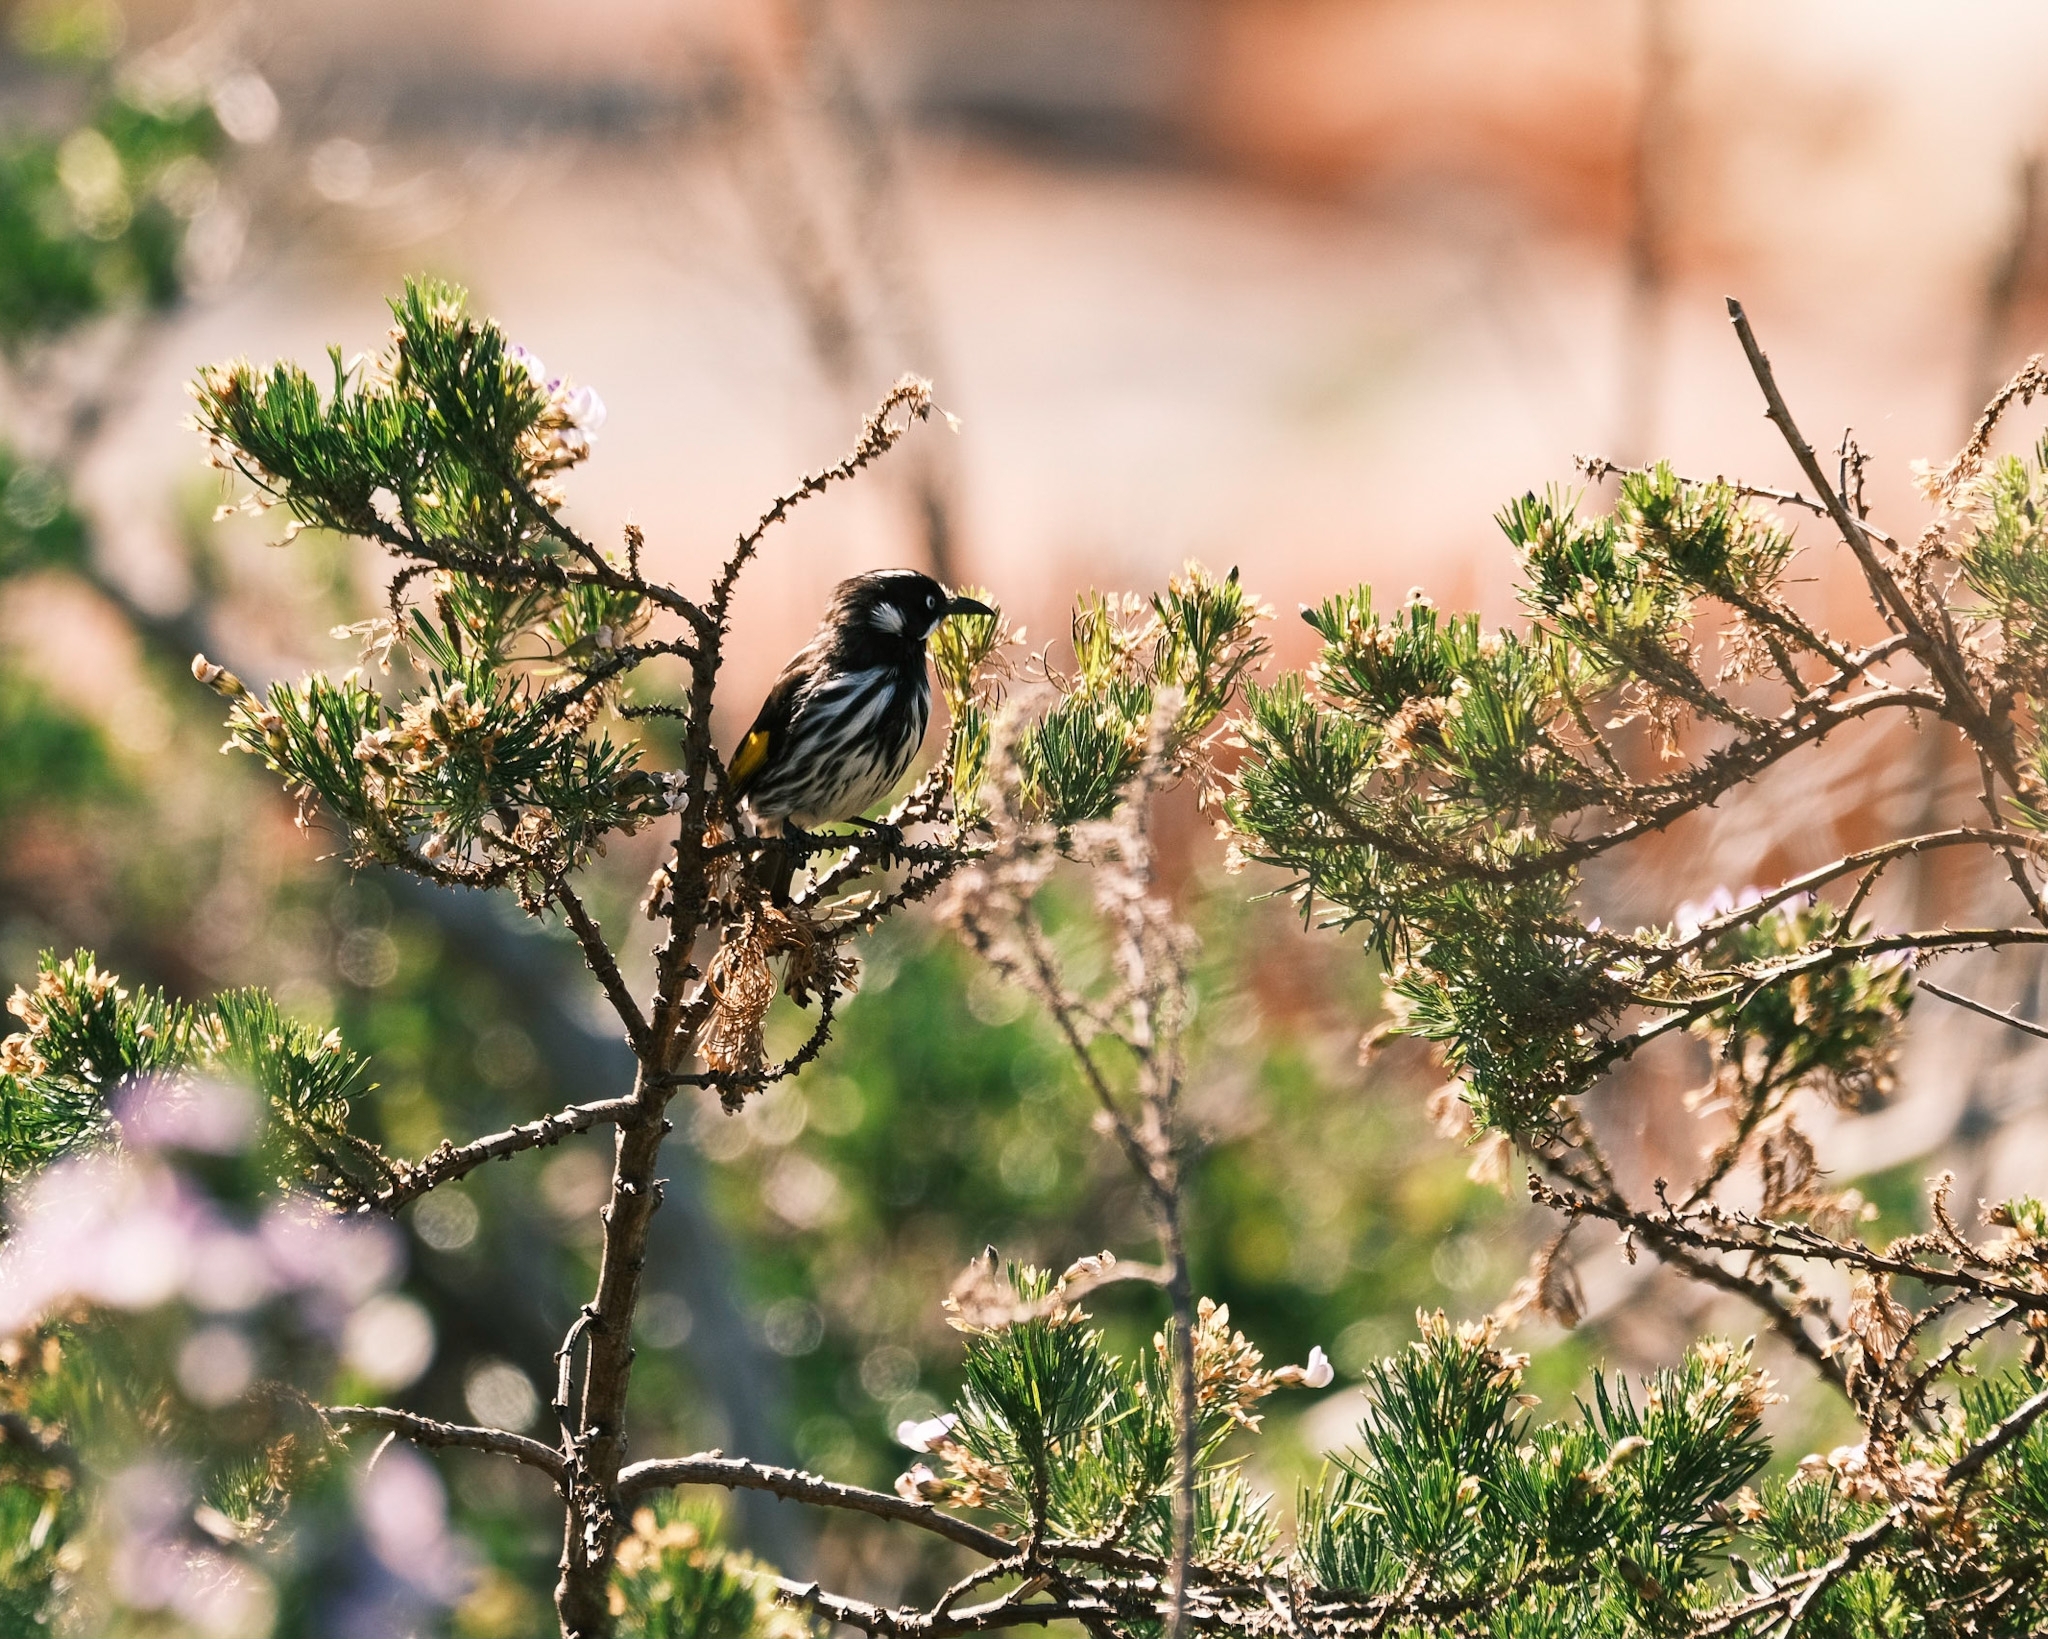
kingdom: Animalia
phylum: Chordata
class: Aves
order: Passeriformes
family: Meliphagidae
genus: Phylidonyris
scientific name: Phylidonyris novaehollandiae
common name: New holland honeyeater
